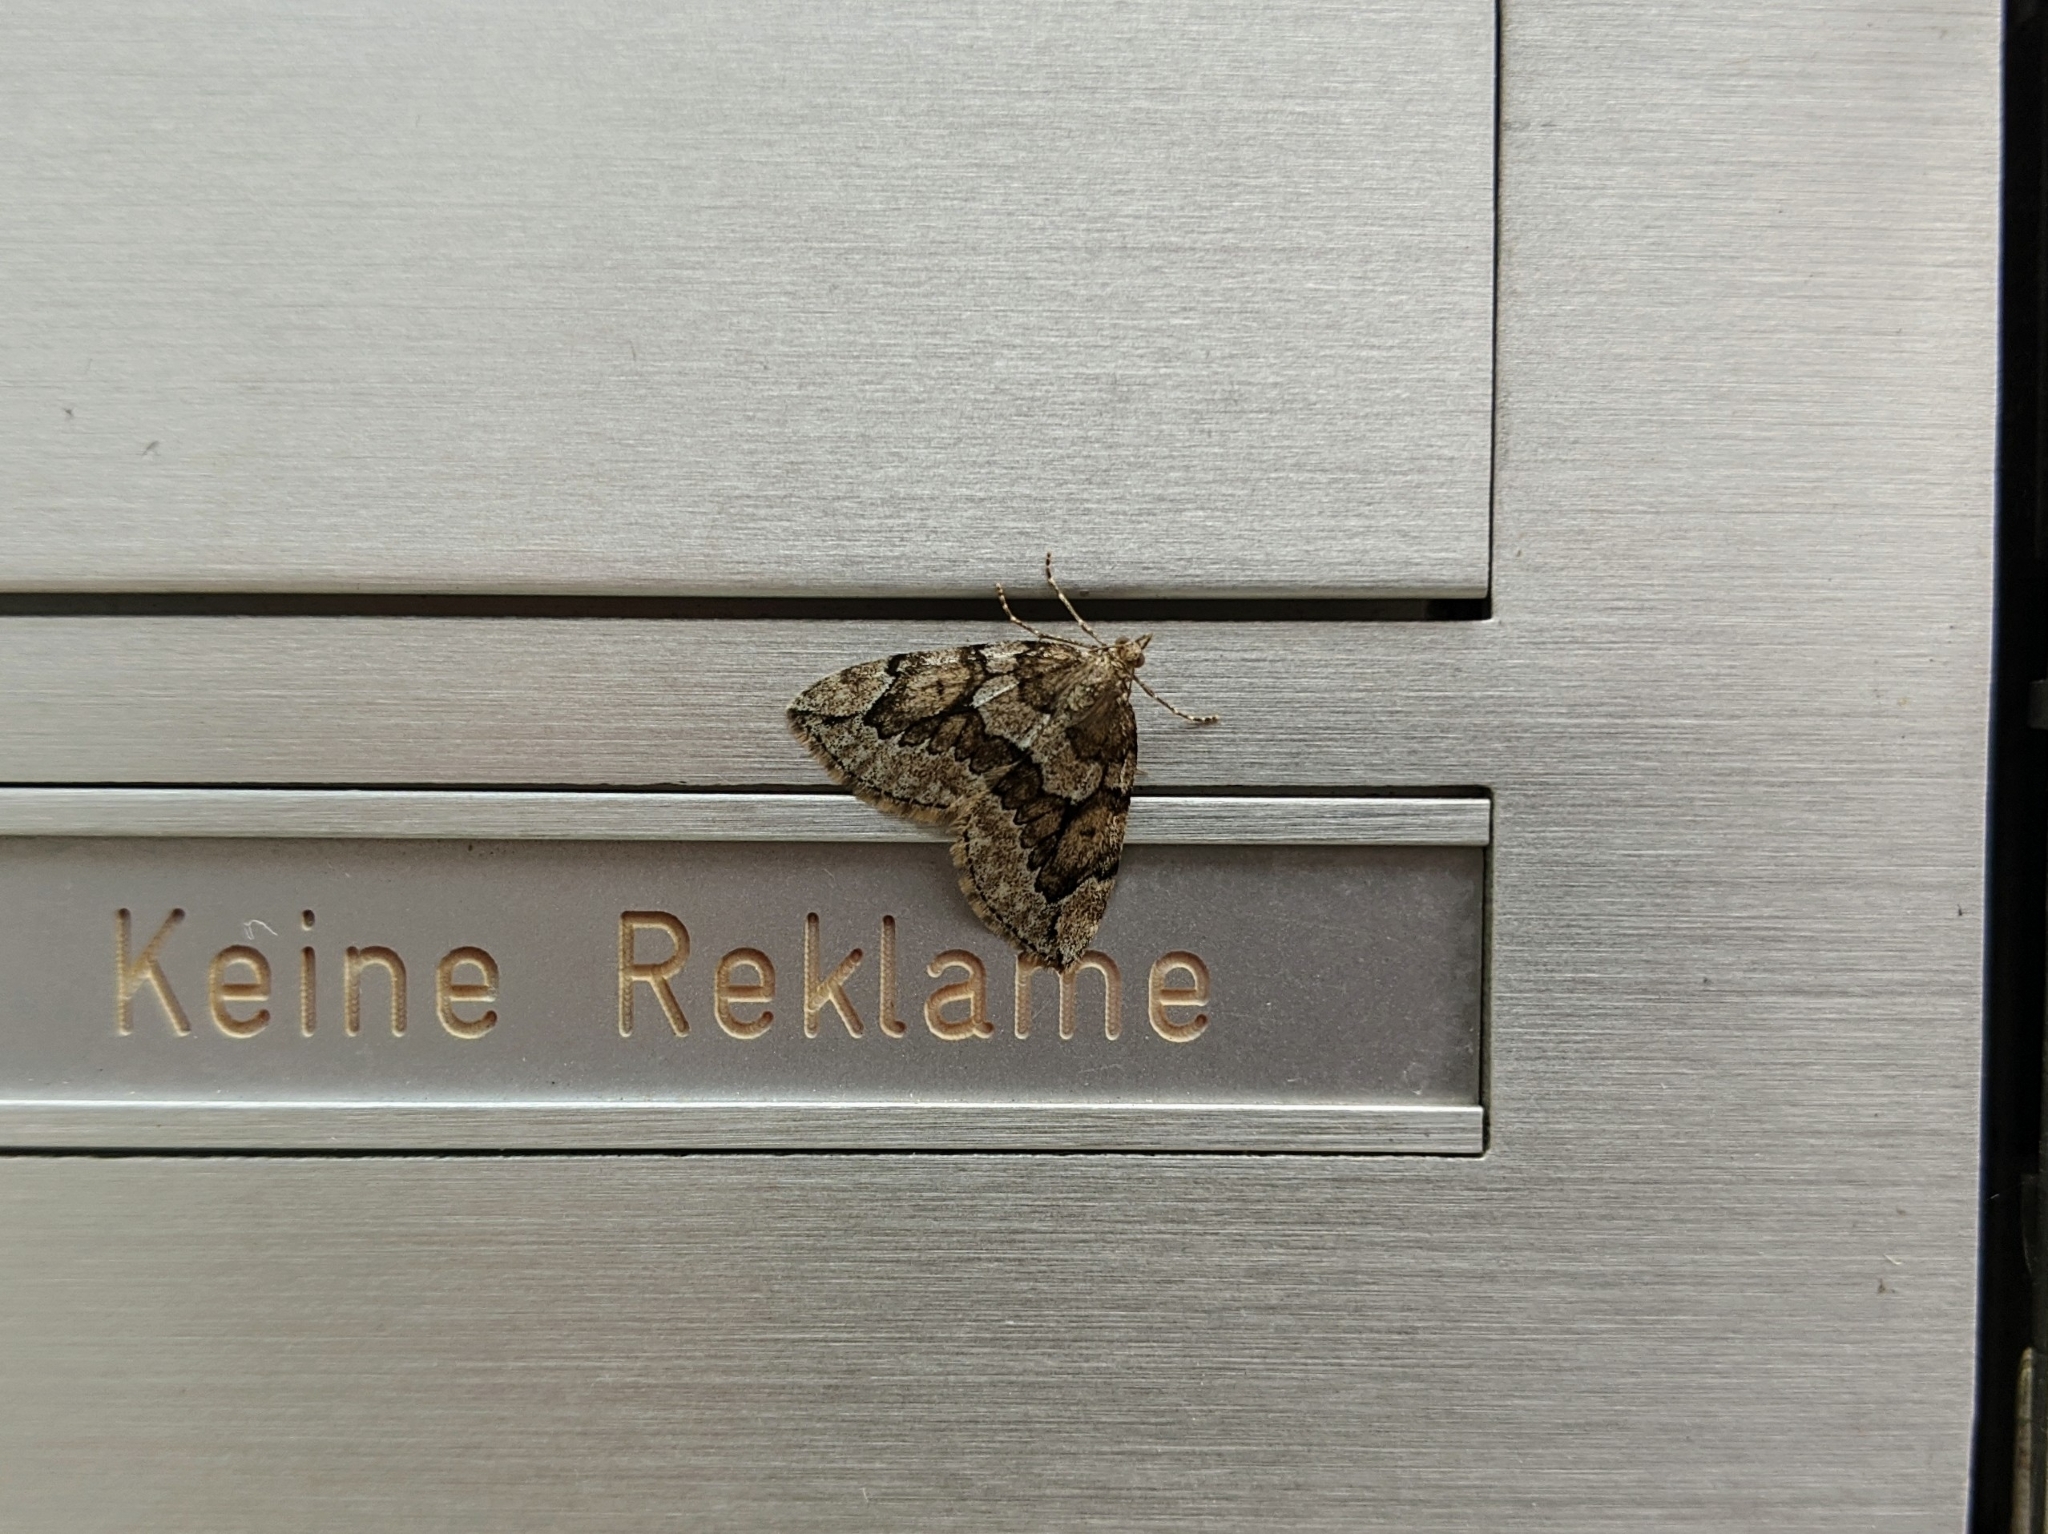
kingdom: Animalia
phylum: Arthropoda
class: Insecta
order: Lepidoptera
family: Geometridae
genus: Thera
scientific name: Thera juniperata
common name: Juniper carpet
